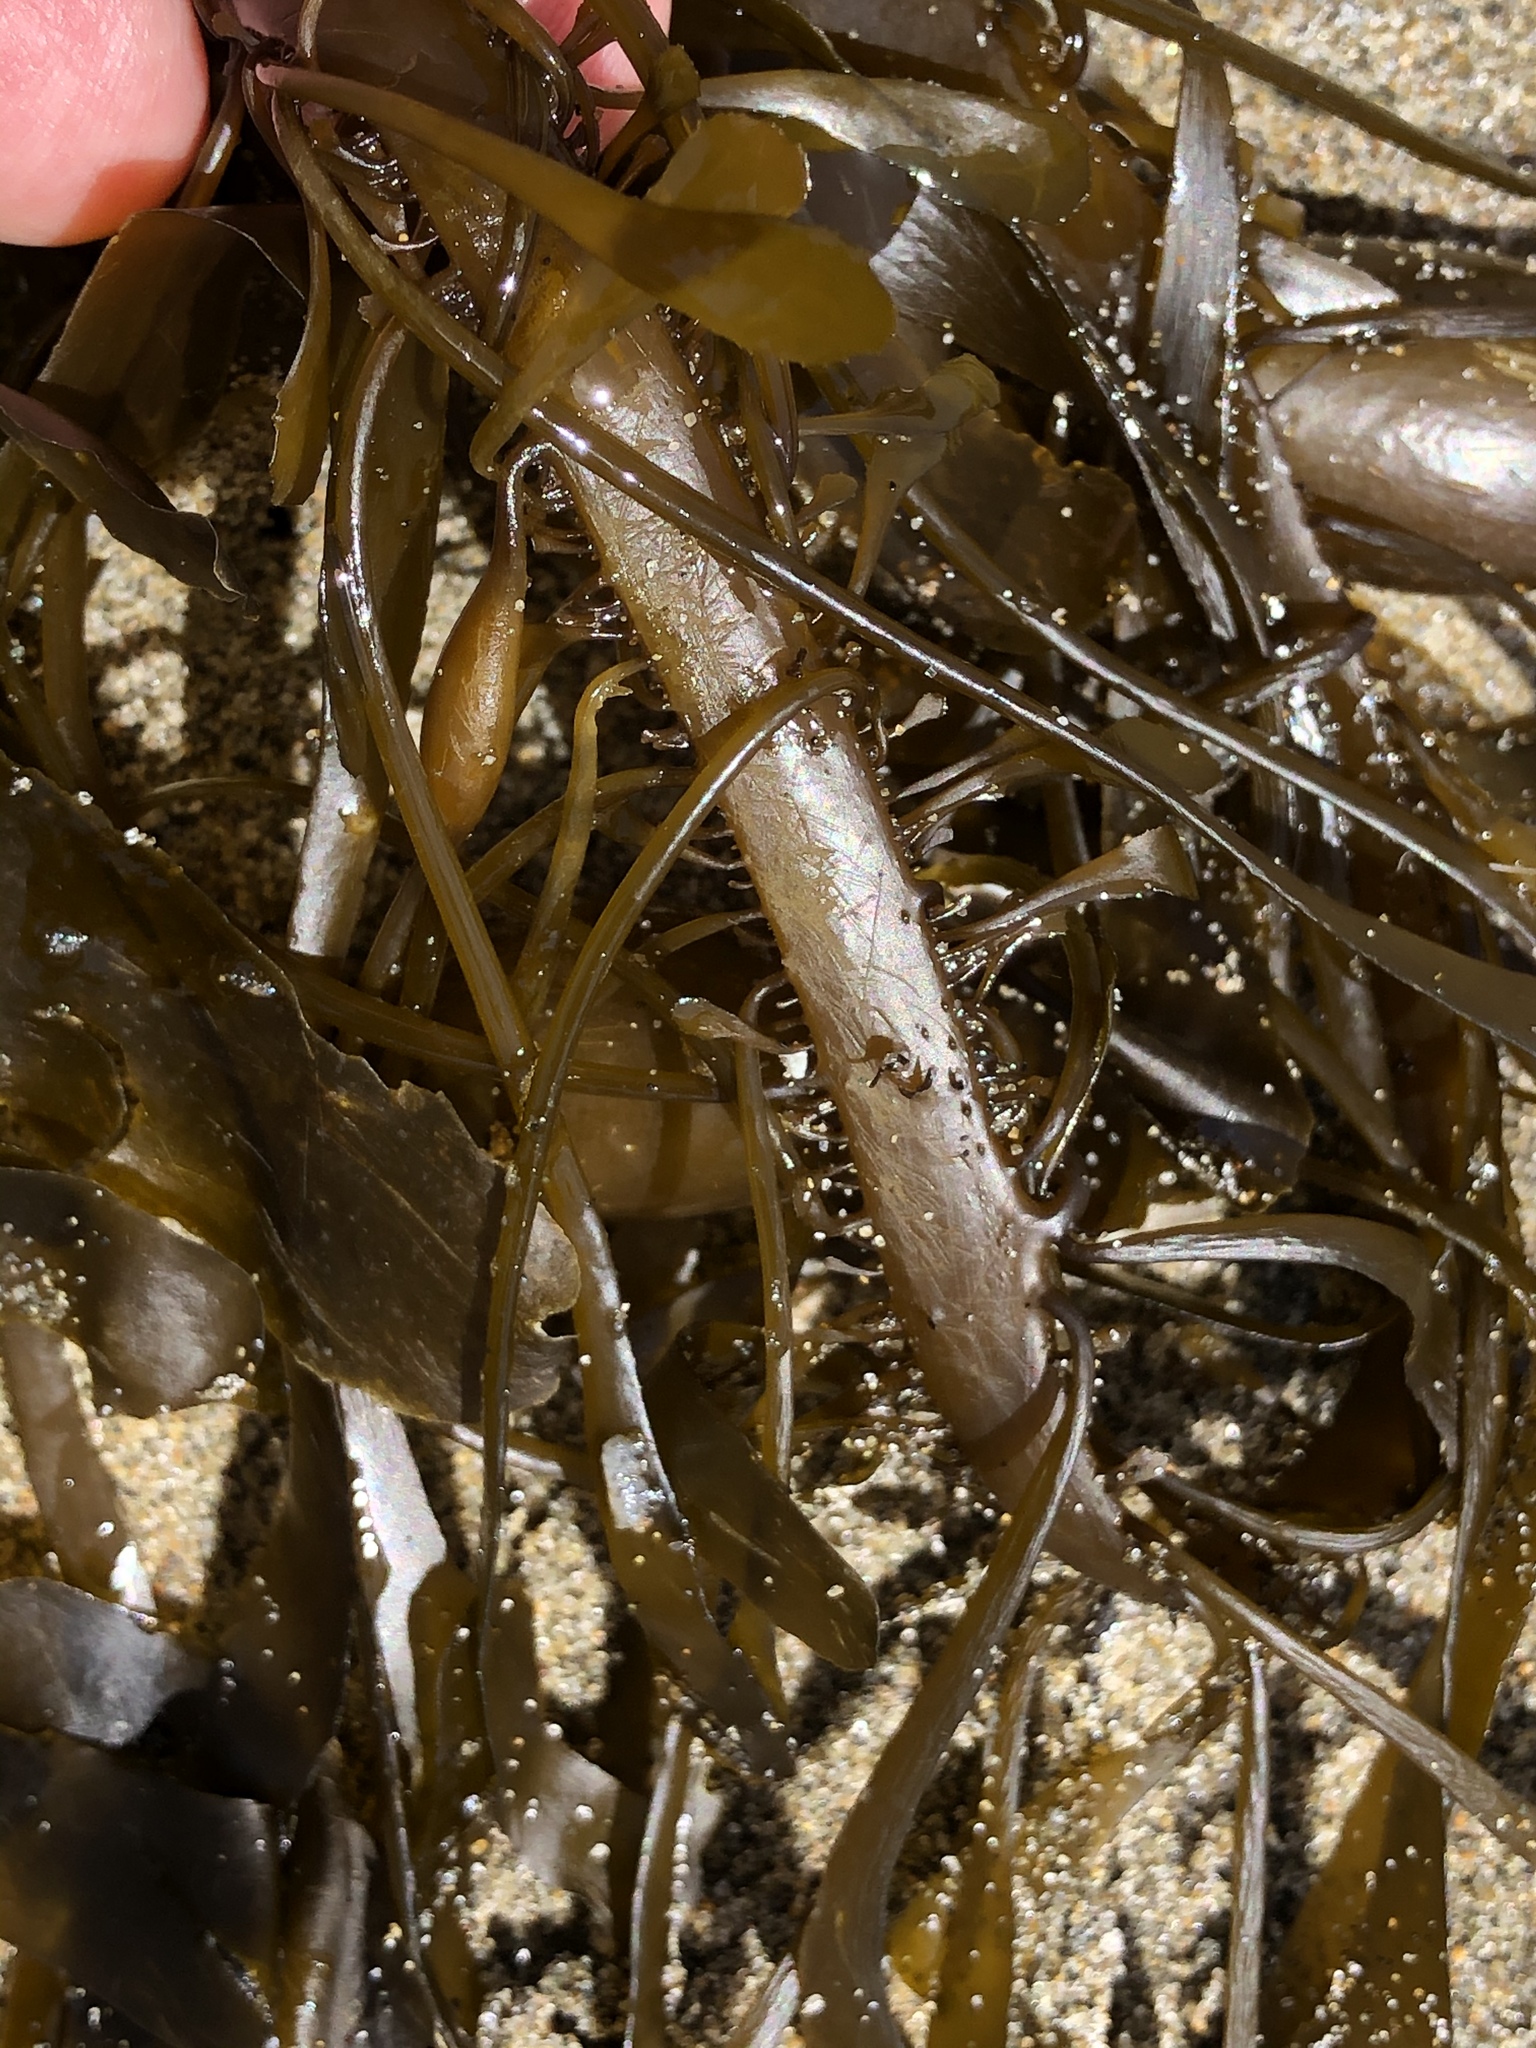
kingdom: Chromista
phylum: Ochrophyta
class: Phaeophyceae
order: Laminariales
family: Lessoniaceae
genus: Egregia
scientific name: Egregia menziesii
